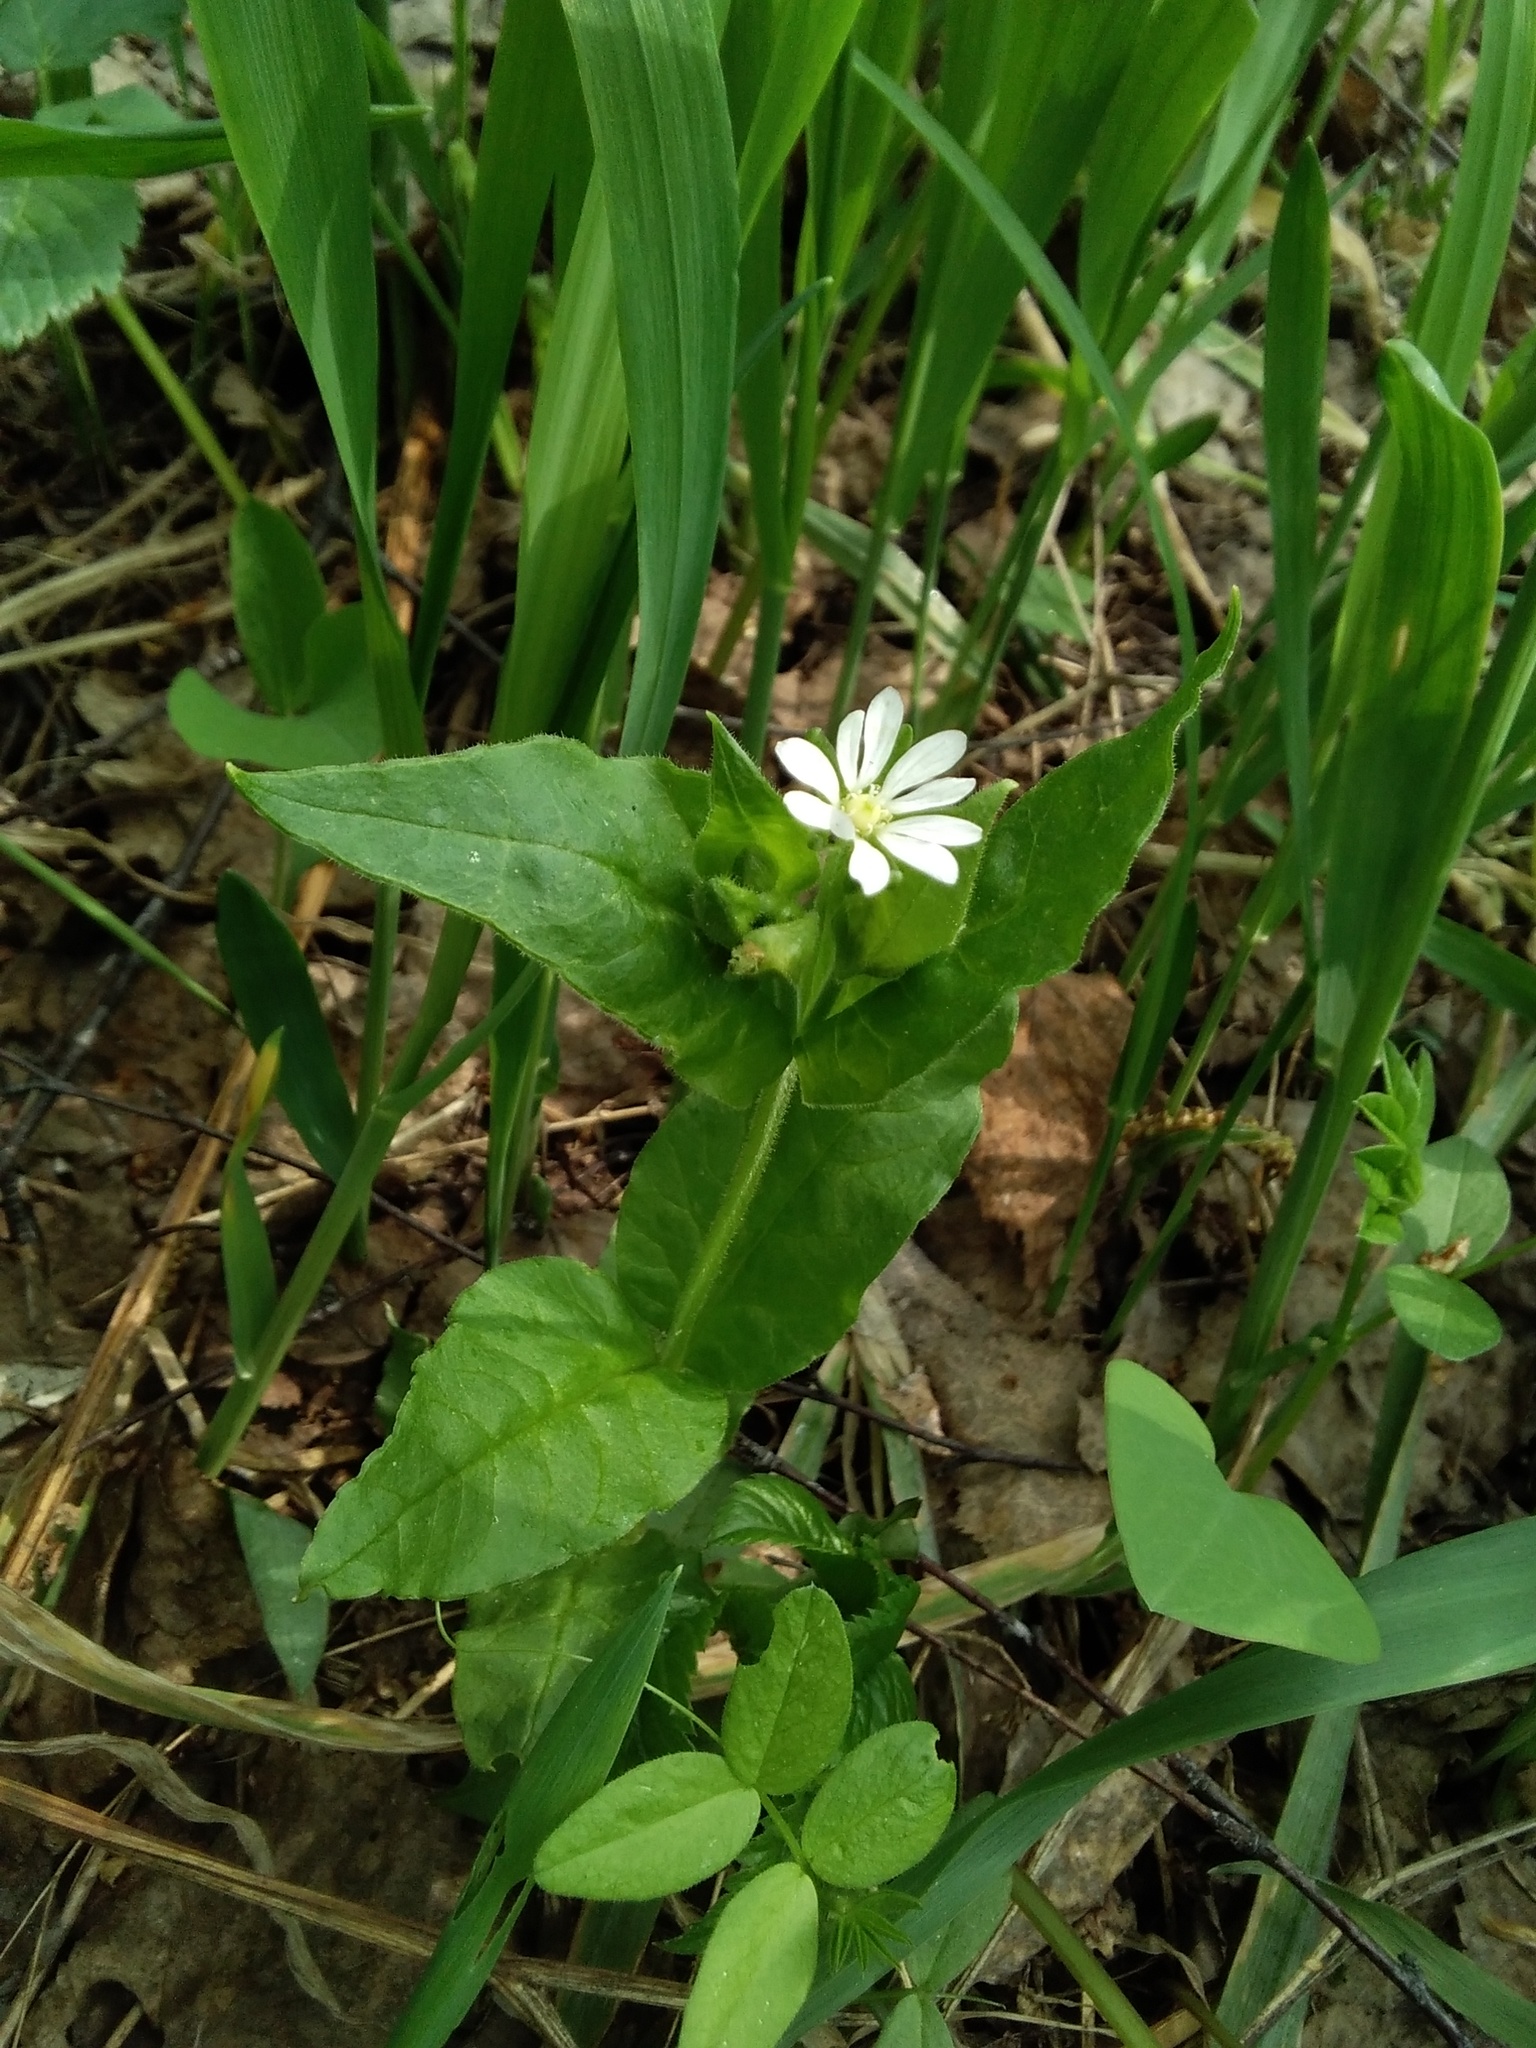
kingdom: Plantae
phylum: Tracheophyta
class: Magnoliopsida
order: Caryophyllales
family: Caryophyllaceae
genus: Stellaria
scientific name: Stellaria bungeana
